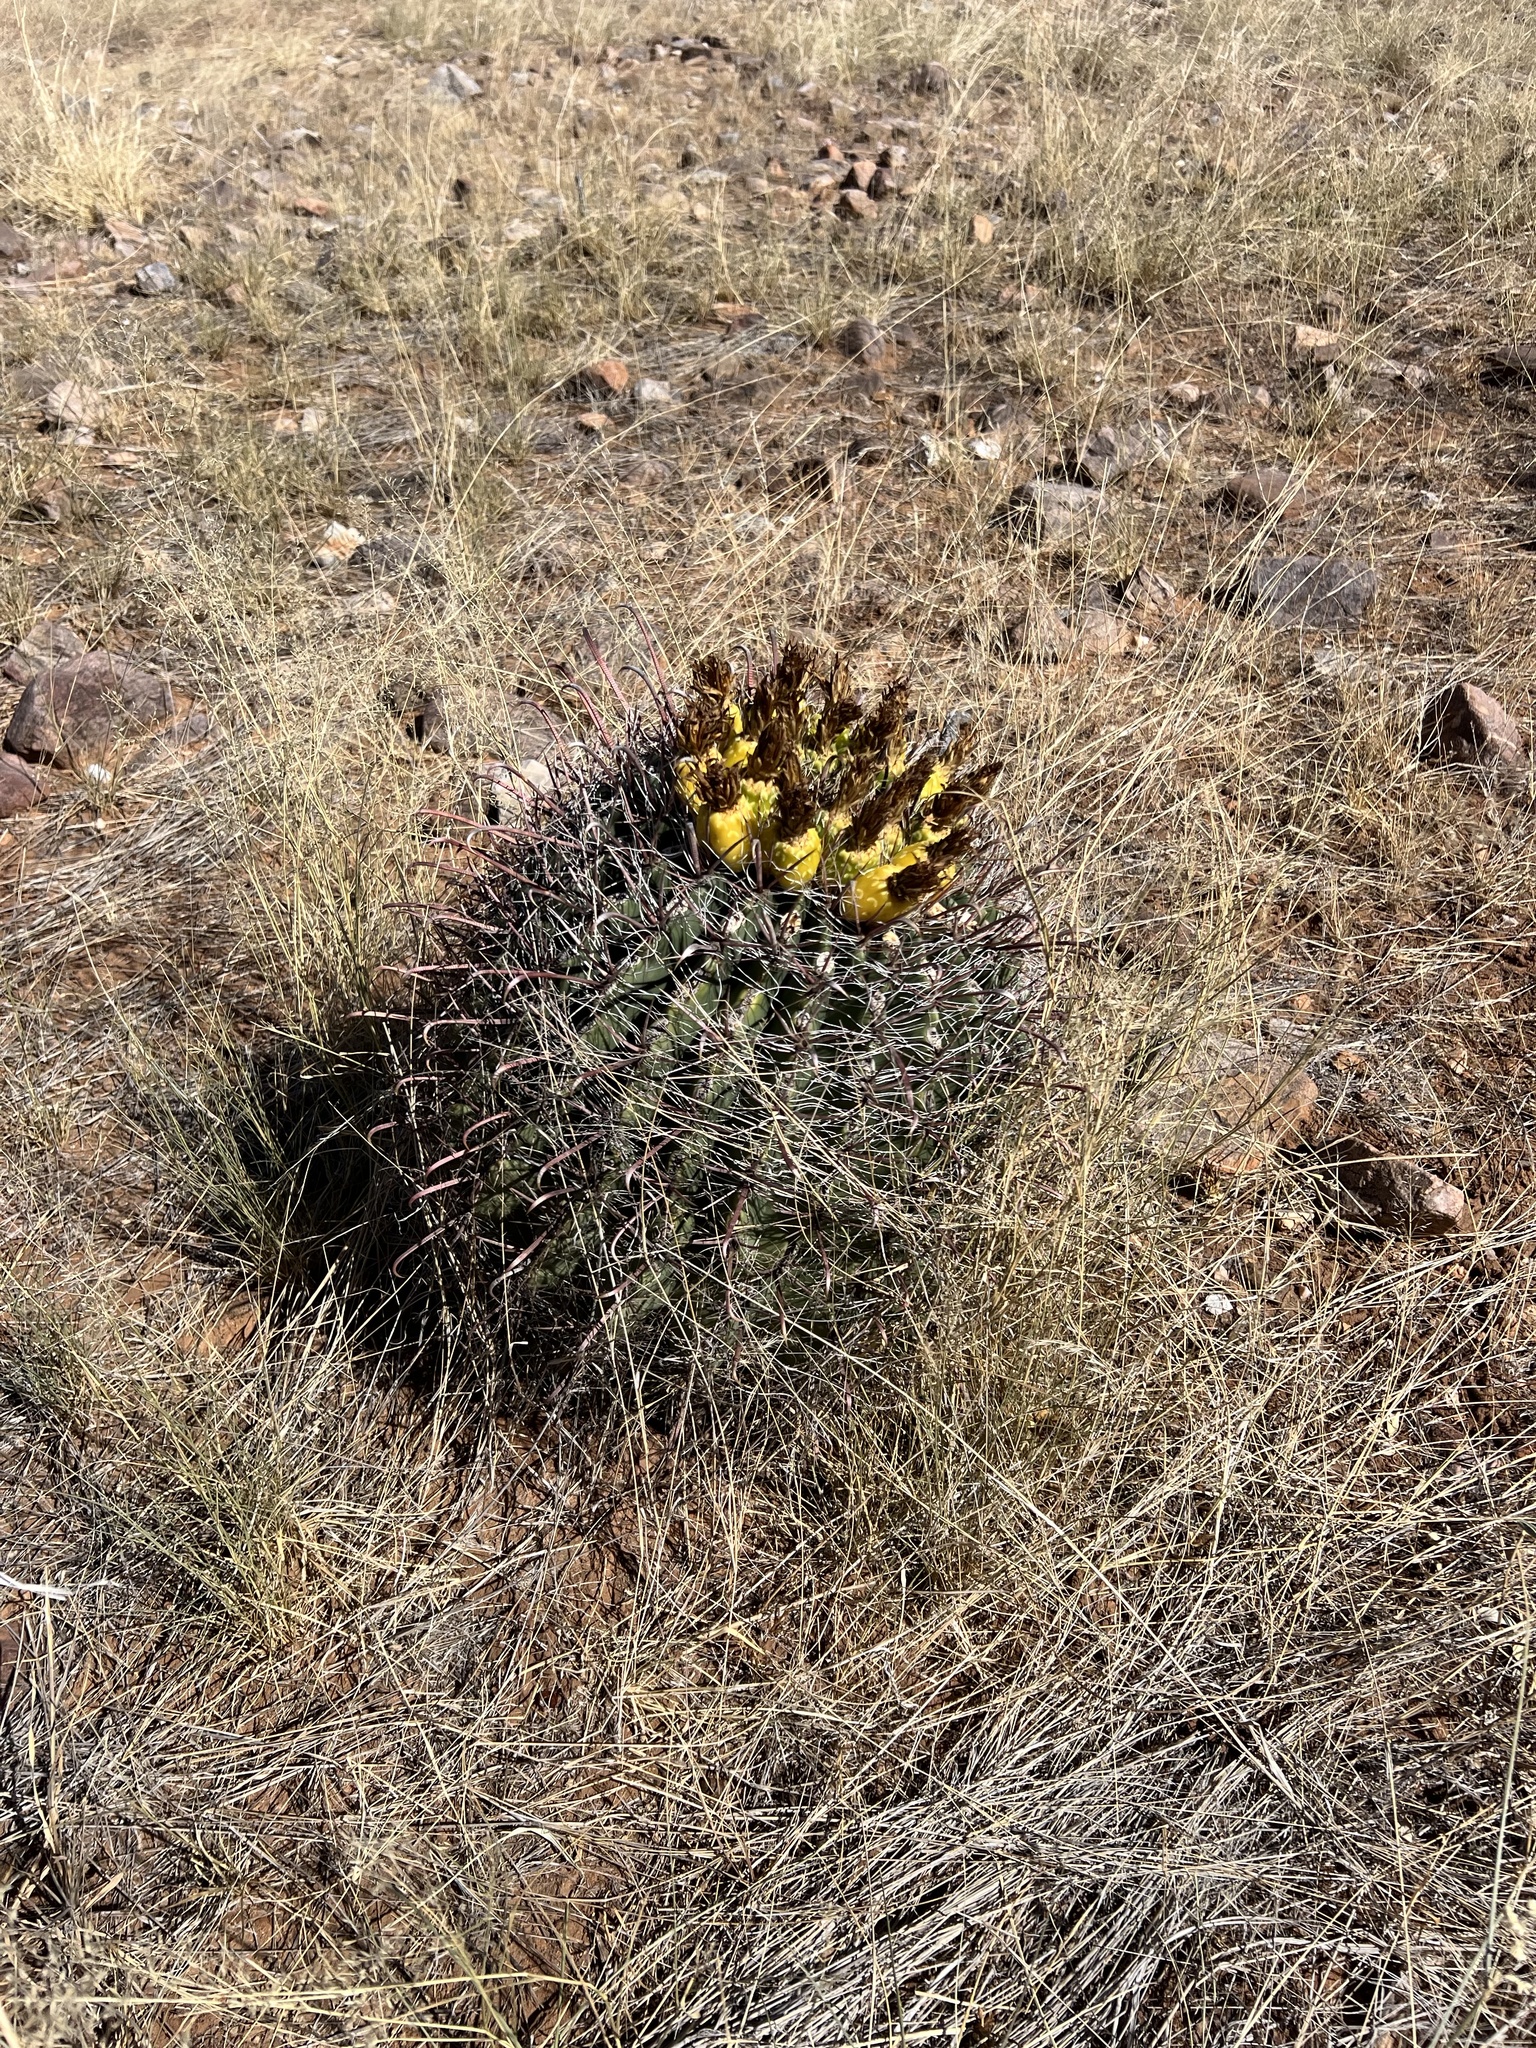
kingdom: Plantae
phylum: Tracheophyta
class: Magnoliopsida
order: Caryophyllales
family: Cactaceae
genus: Ferocactus
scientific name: Ferocactus wislizeni
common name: Candy barrel cactus
